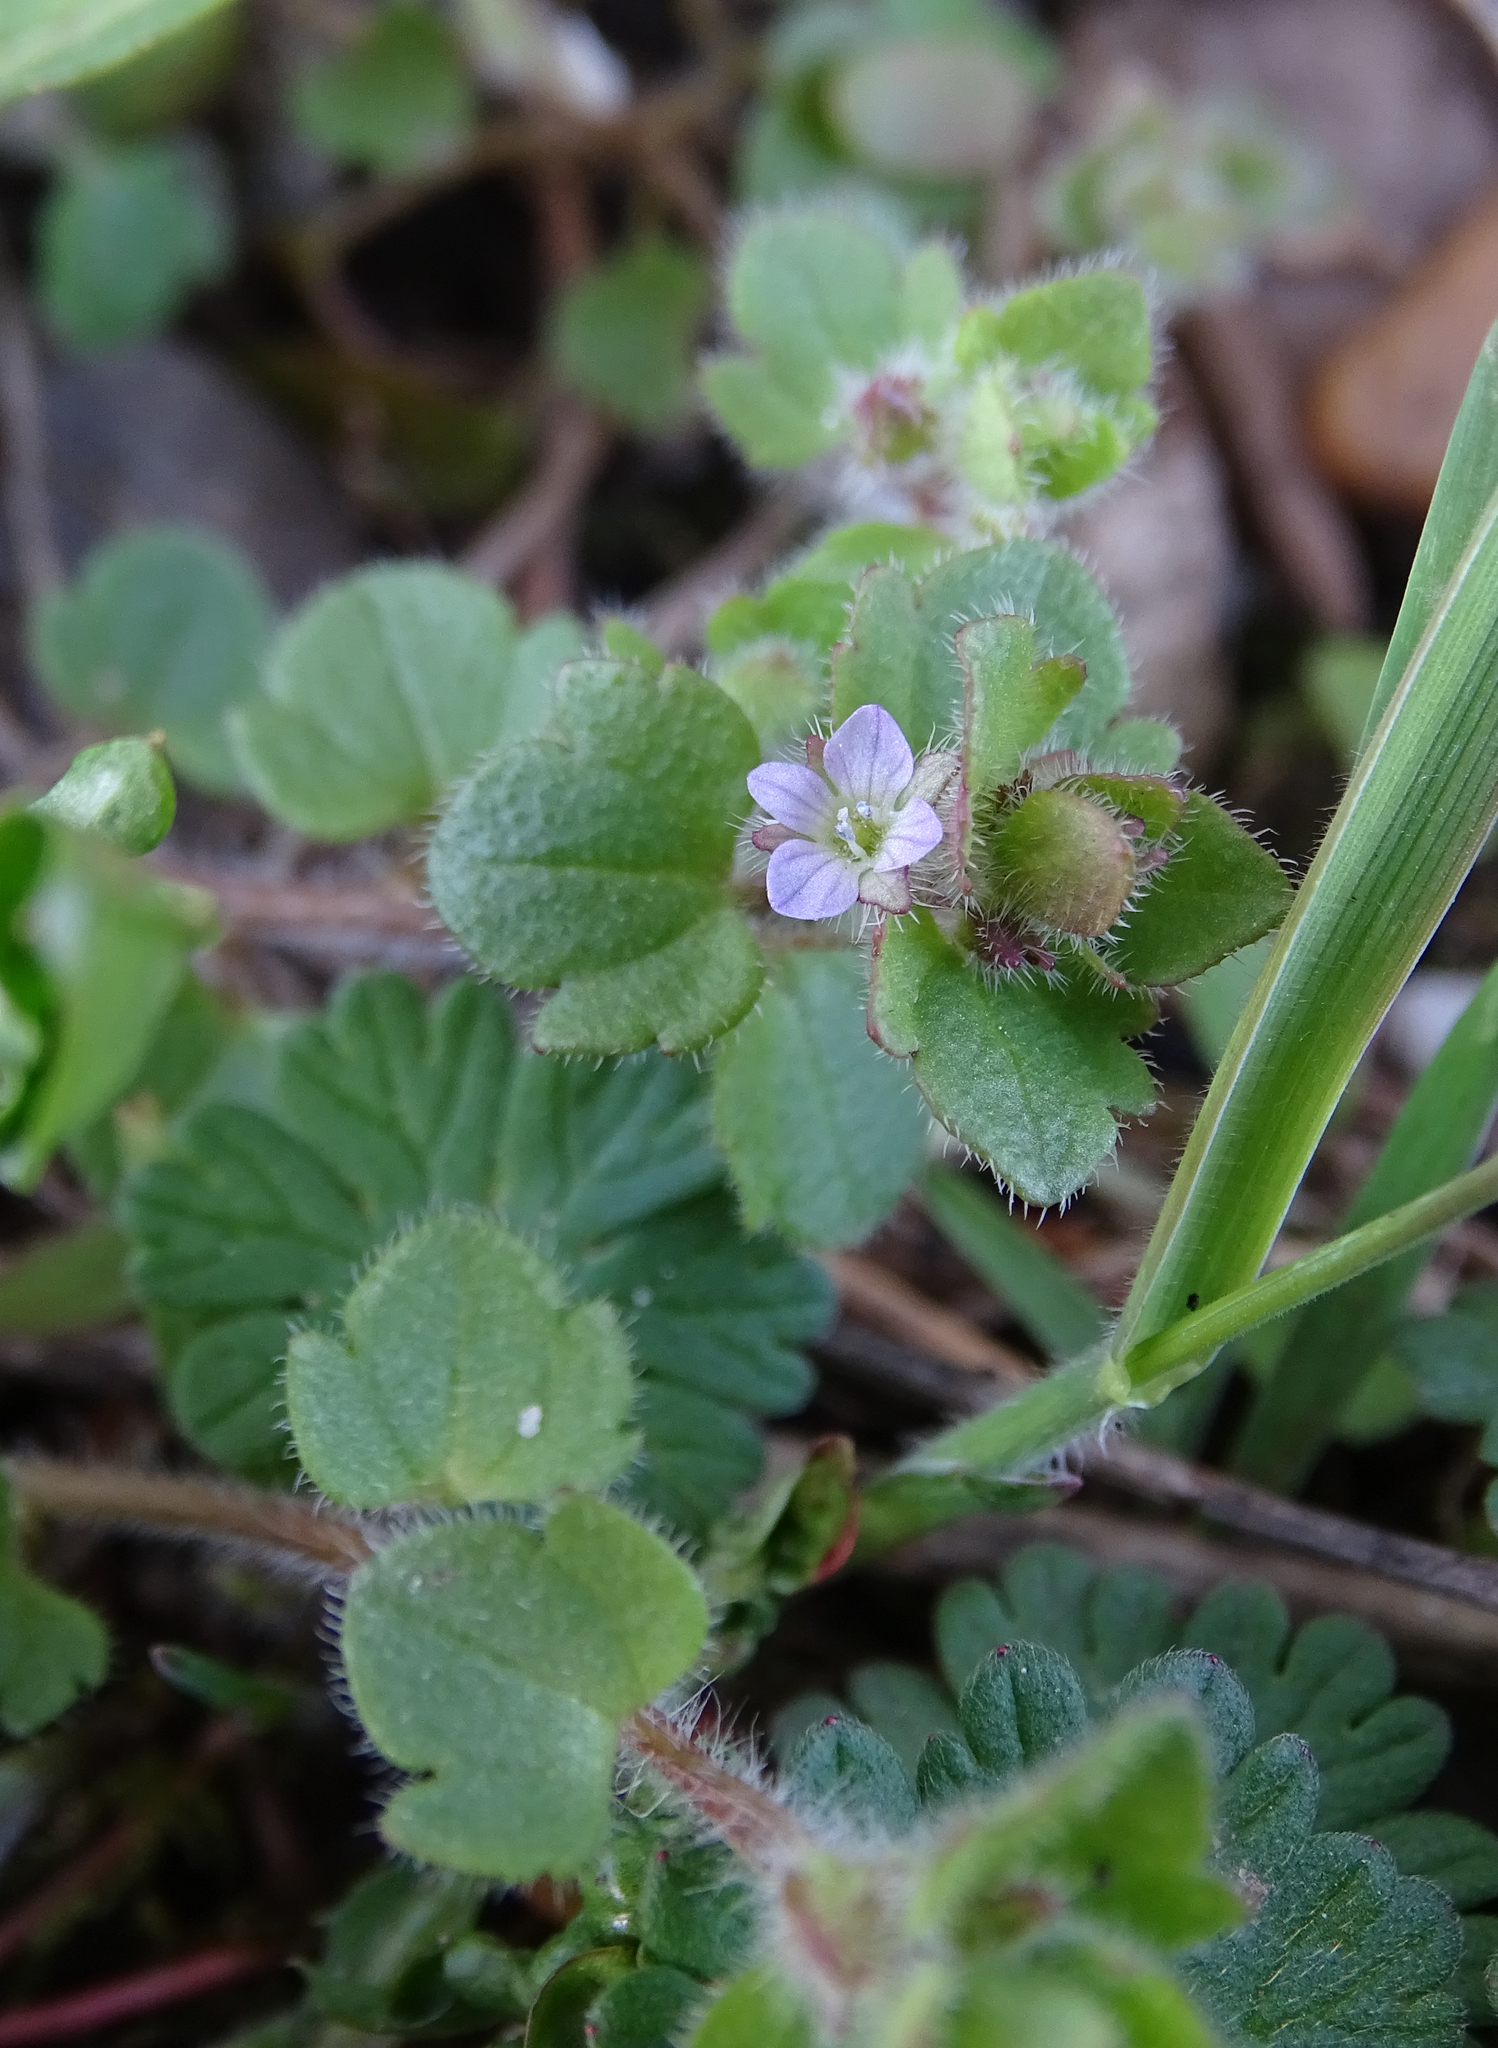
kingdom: Plantae
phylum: Tracheophyta
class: Magnoliopsida
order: Lamiales
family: Plantaginaceae
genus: Veronica
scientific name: Veronica sublobata
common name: False ivy-leaved speedwell
